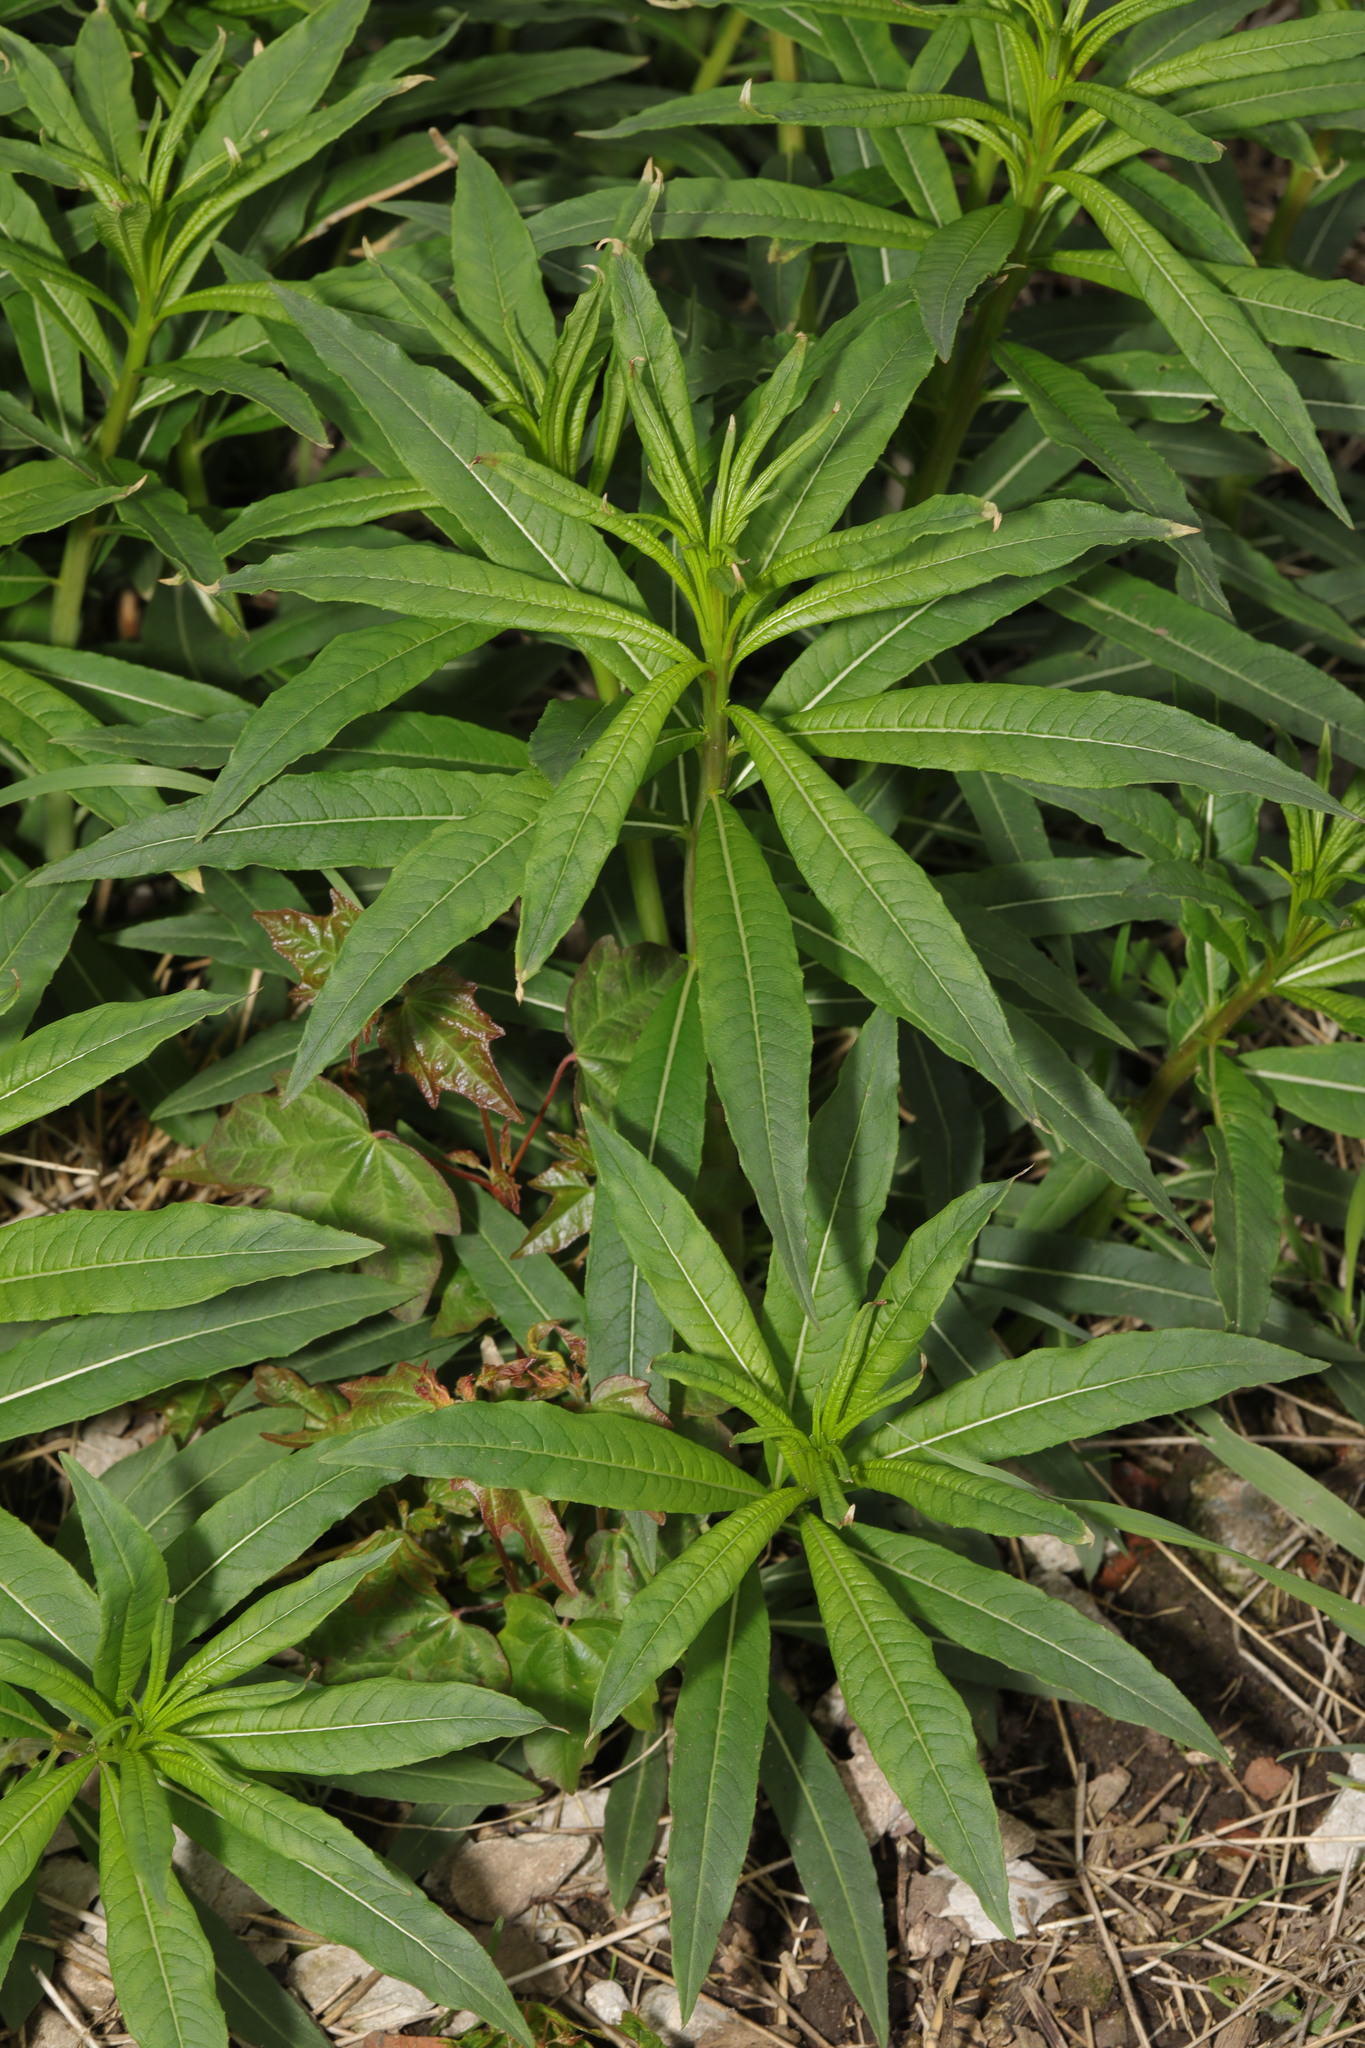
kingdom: Plantae
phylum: Tracheophyta
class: Magnoliopsida
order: Myrtales
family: Onagraceae
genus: Chamaenerion
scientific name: Chamaenerion angustifolium
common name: Fireweed
